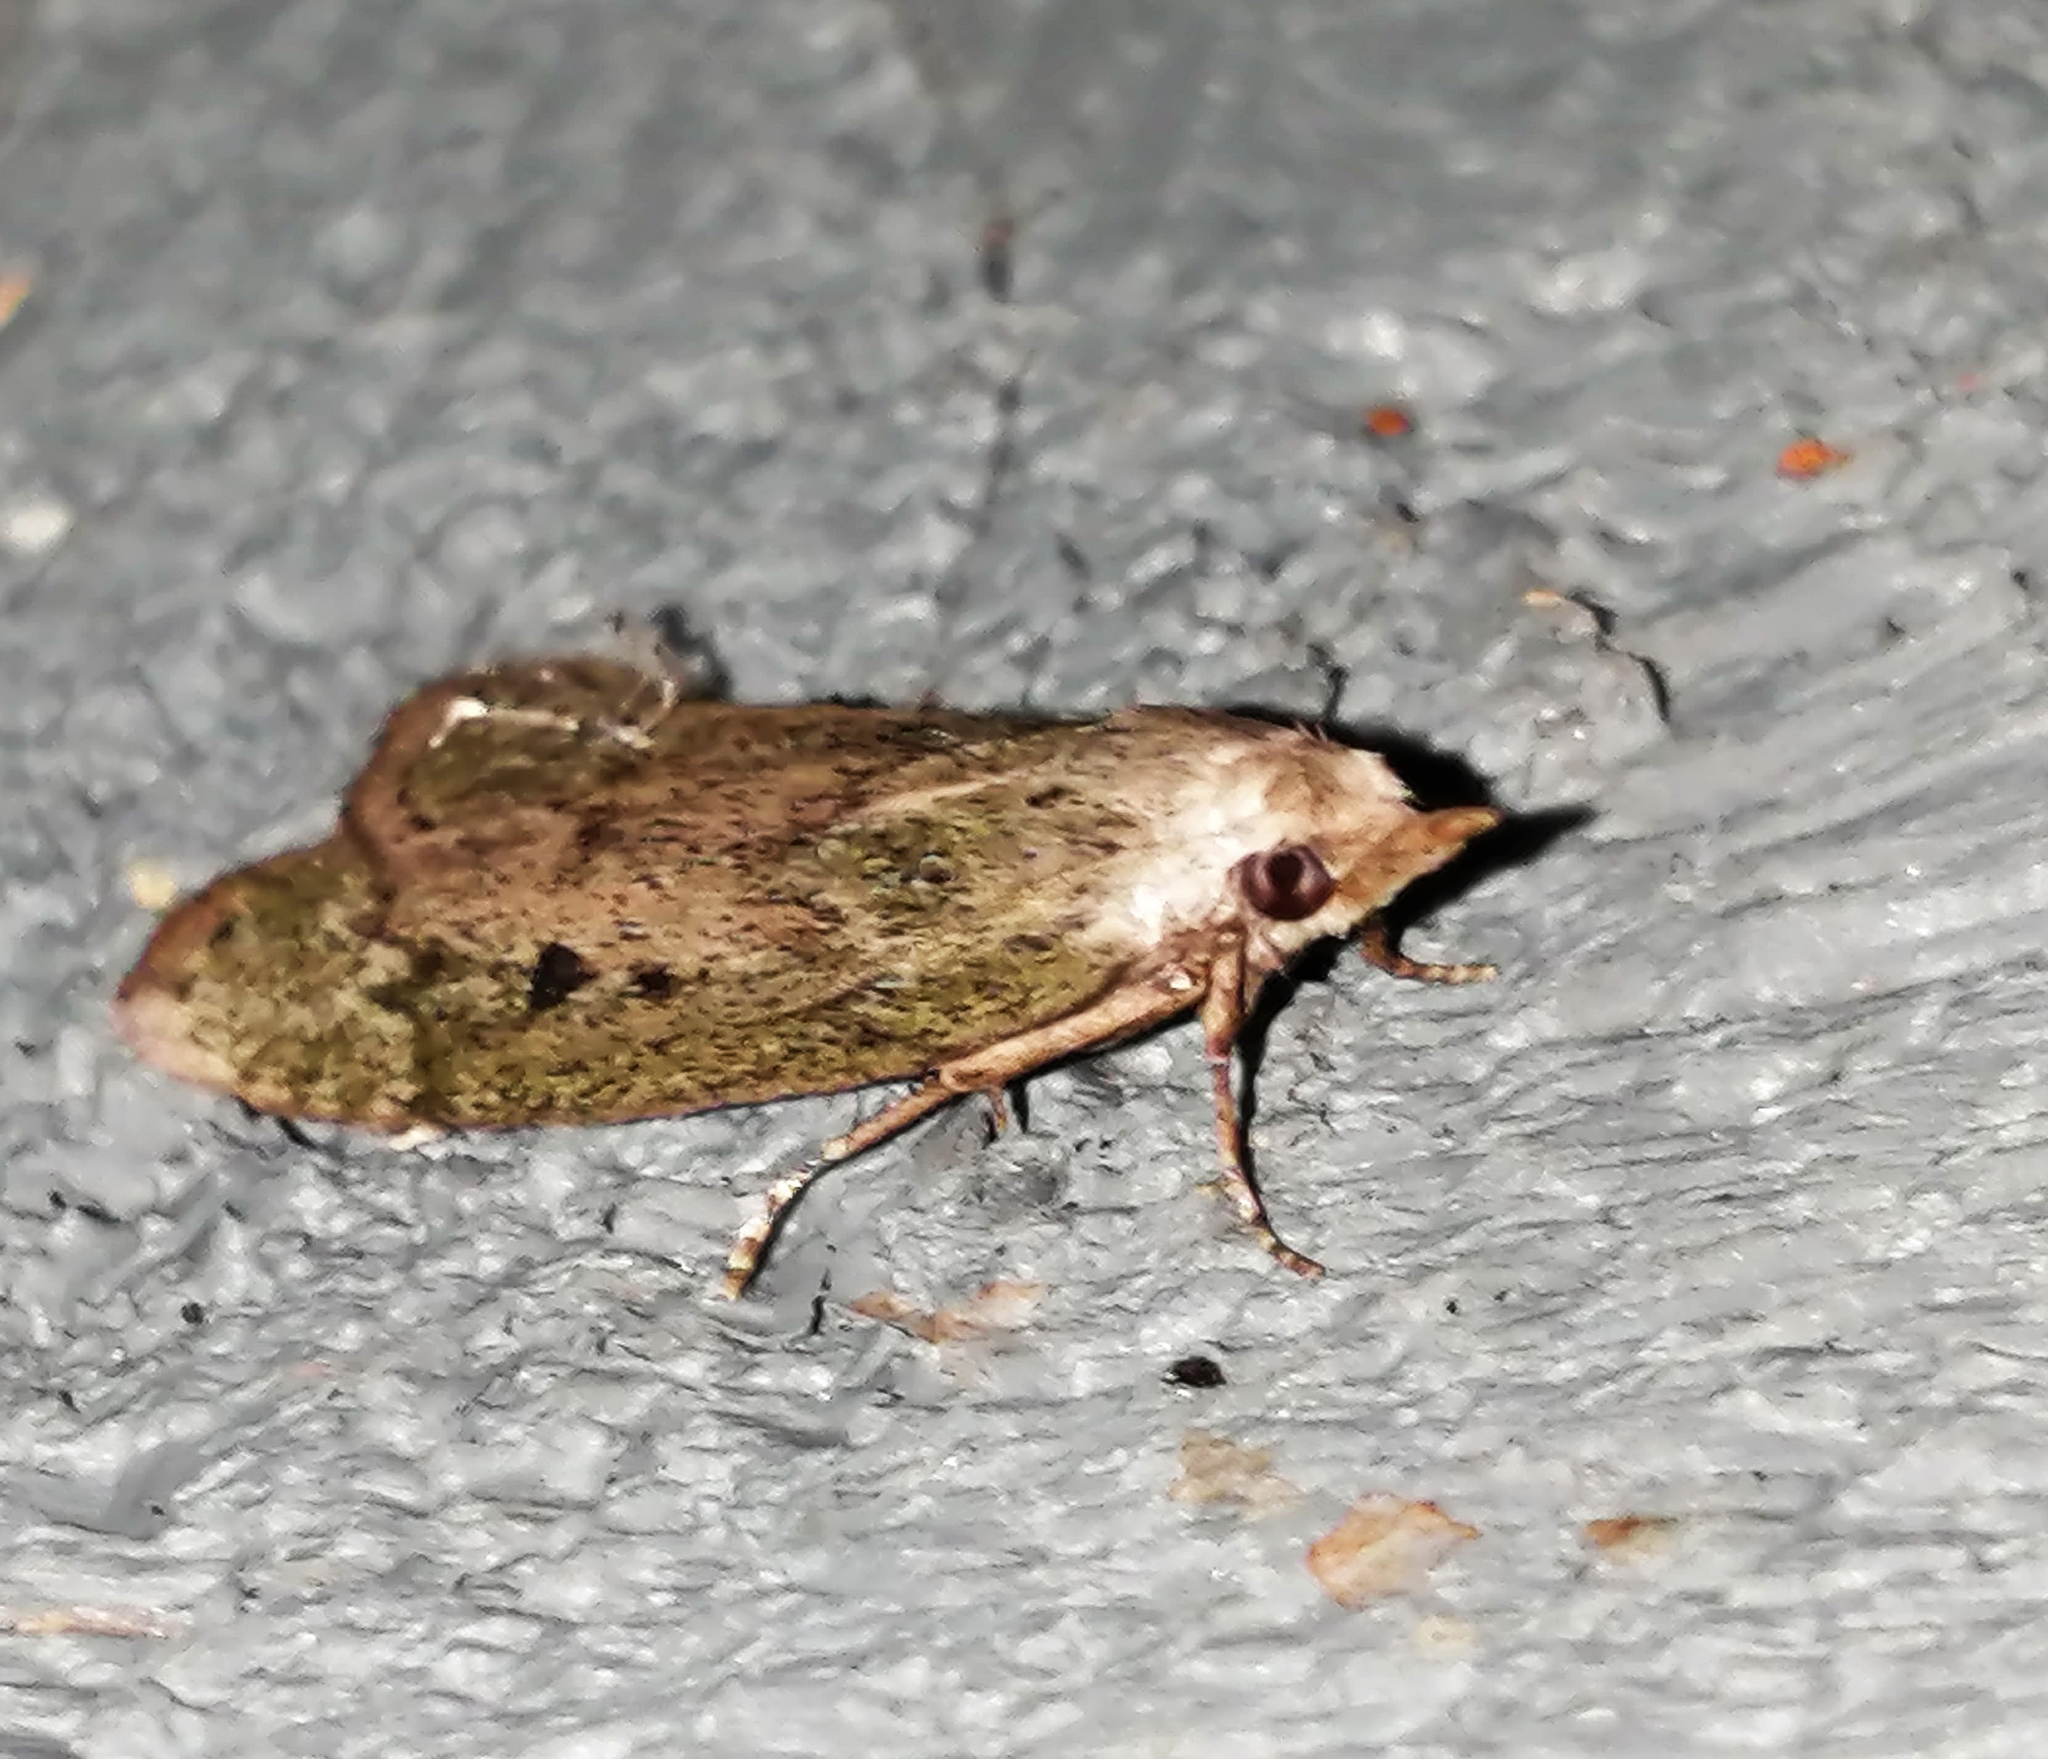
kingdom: Animalia
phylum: Arthropoda
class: Insecta
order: Lepidoptera
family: Pyralidae
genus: Aphomia
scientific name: Aphomia sociella
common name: Bee moth
